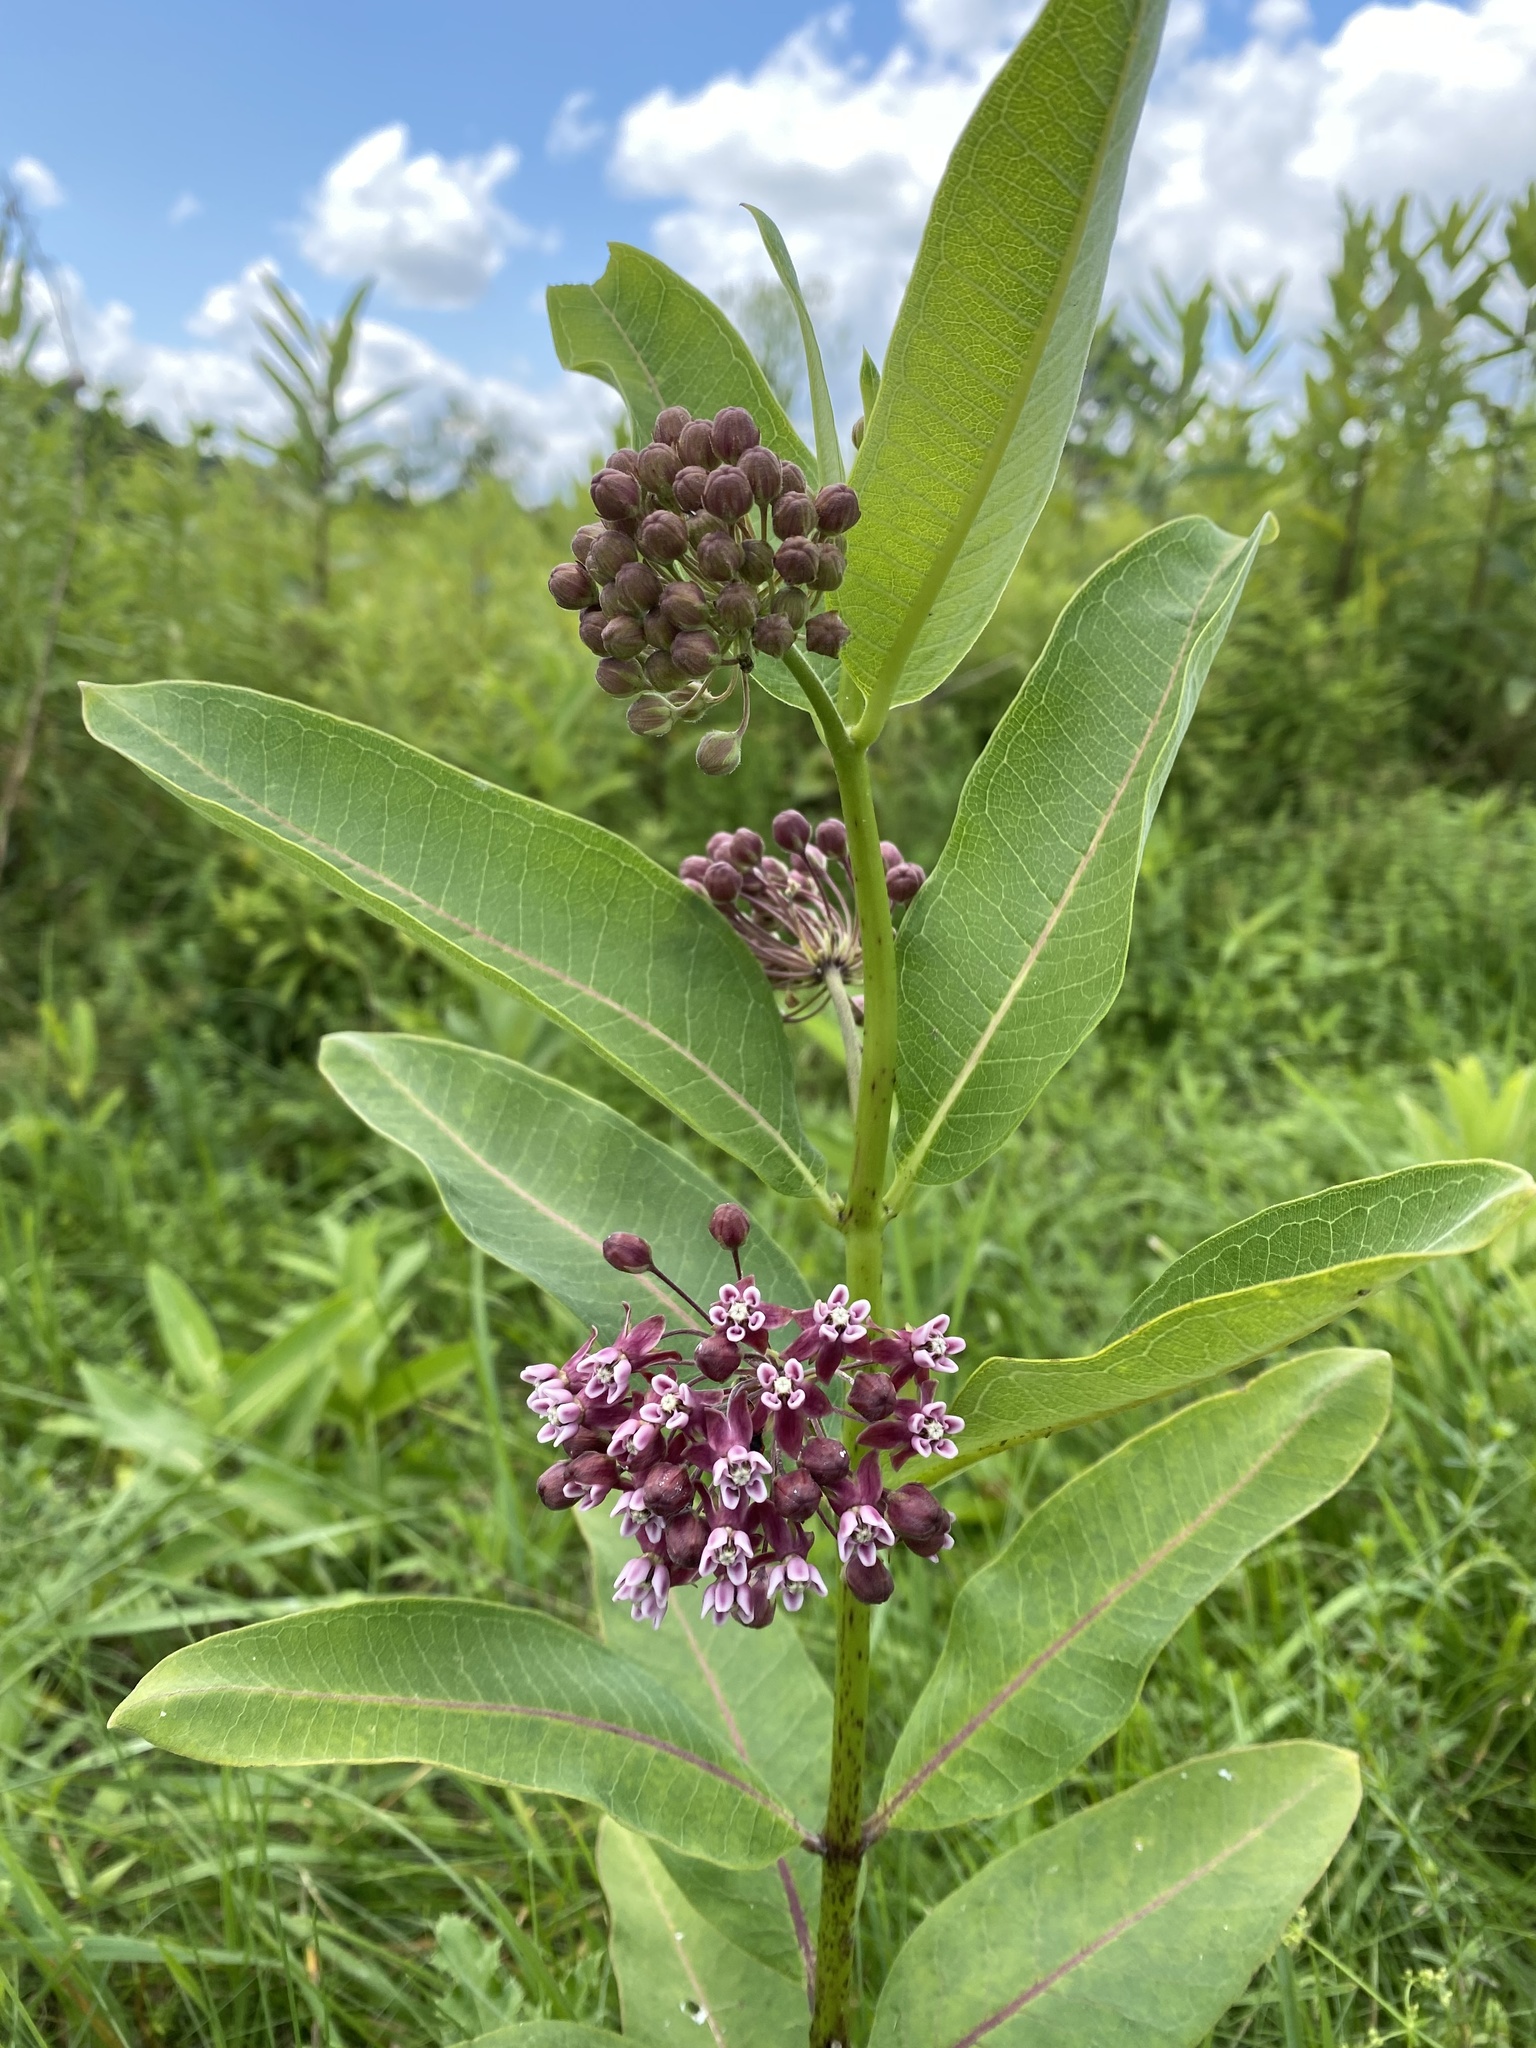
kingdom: Plantae
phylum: Tracheophyta
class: Magnoliopsida
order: Gentianales
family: Apocynaceae
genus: Asclepias
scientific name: Asclepias syriaca
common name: Common milkweed
